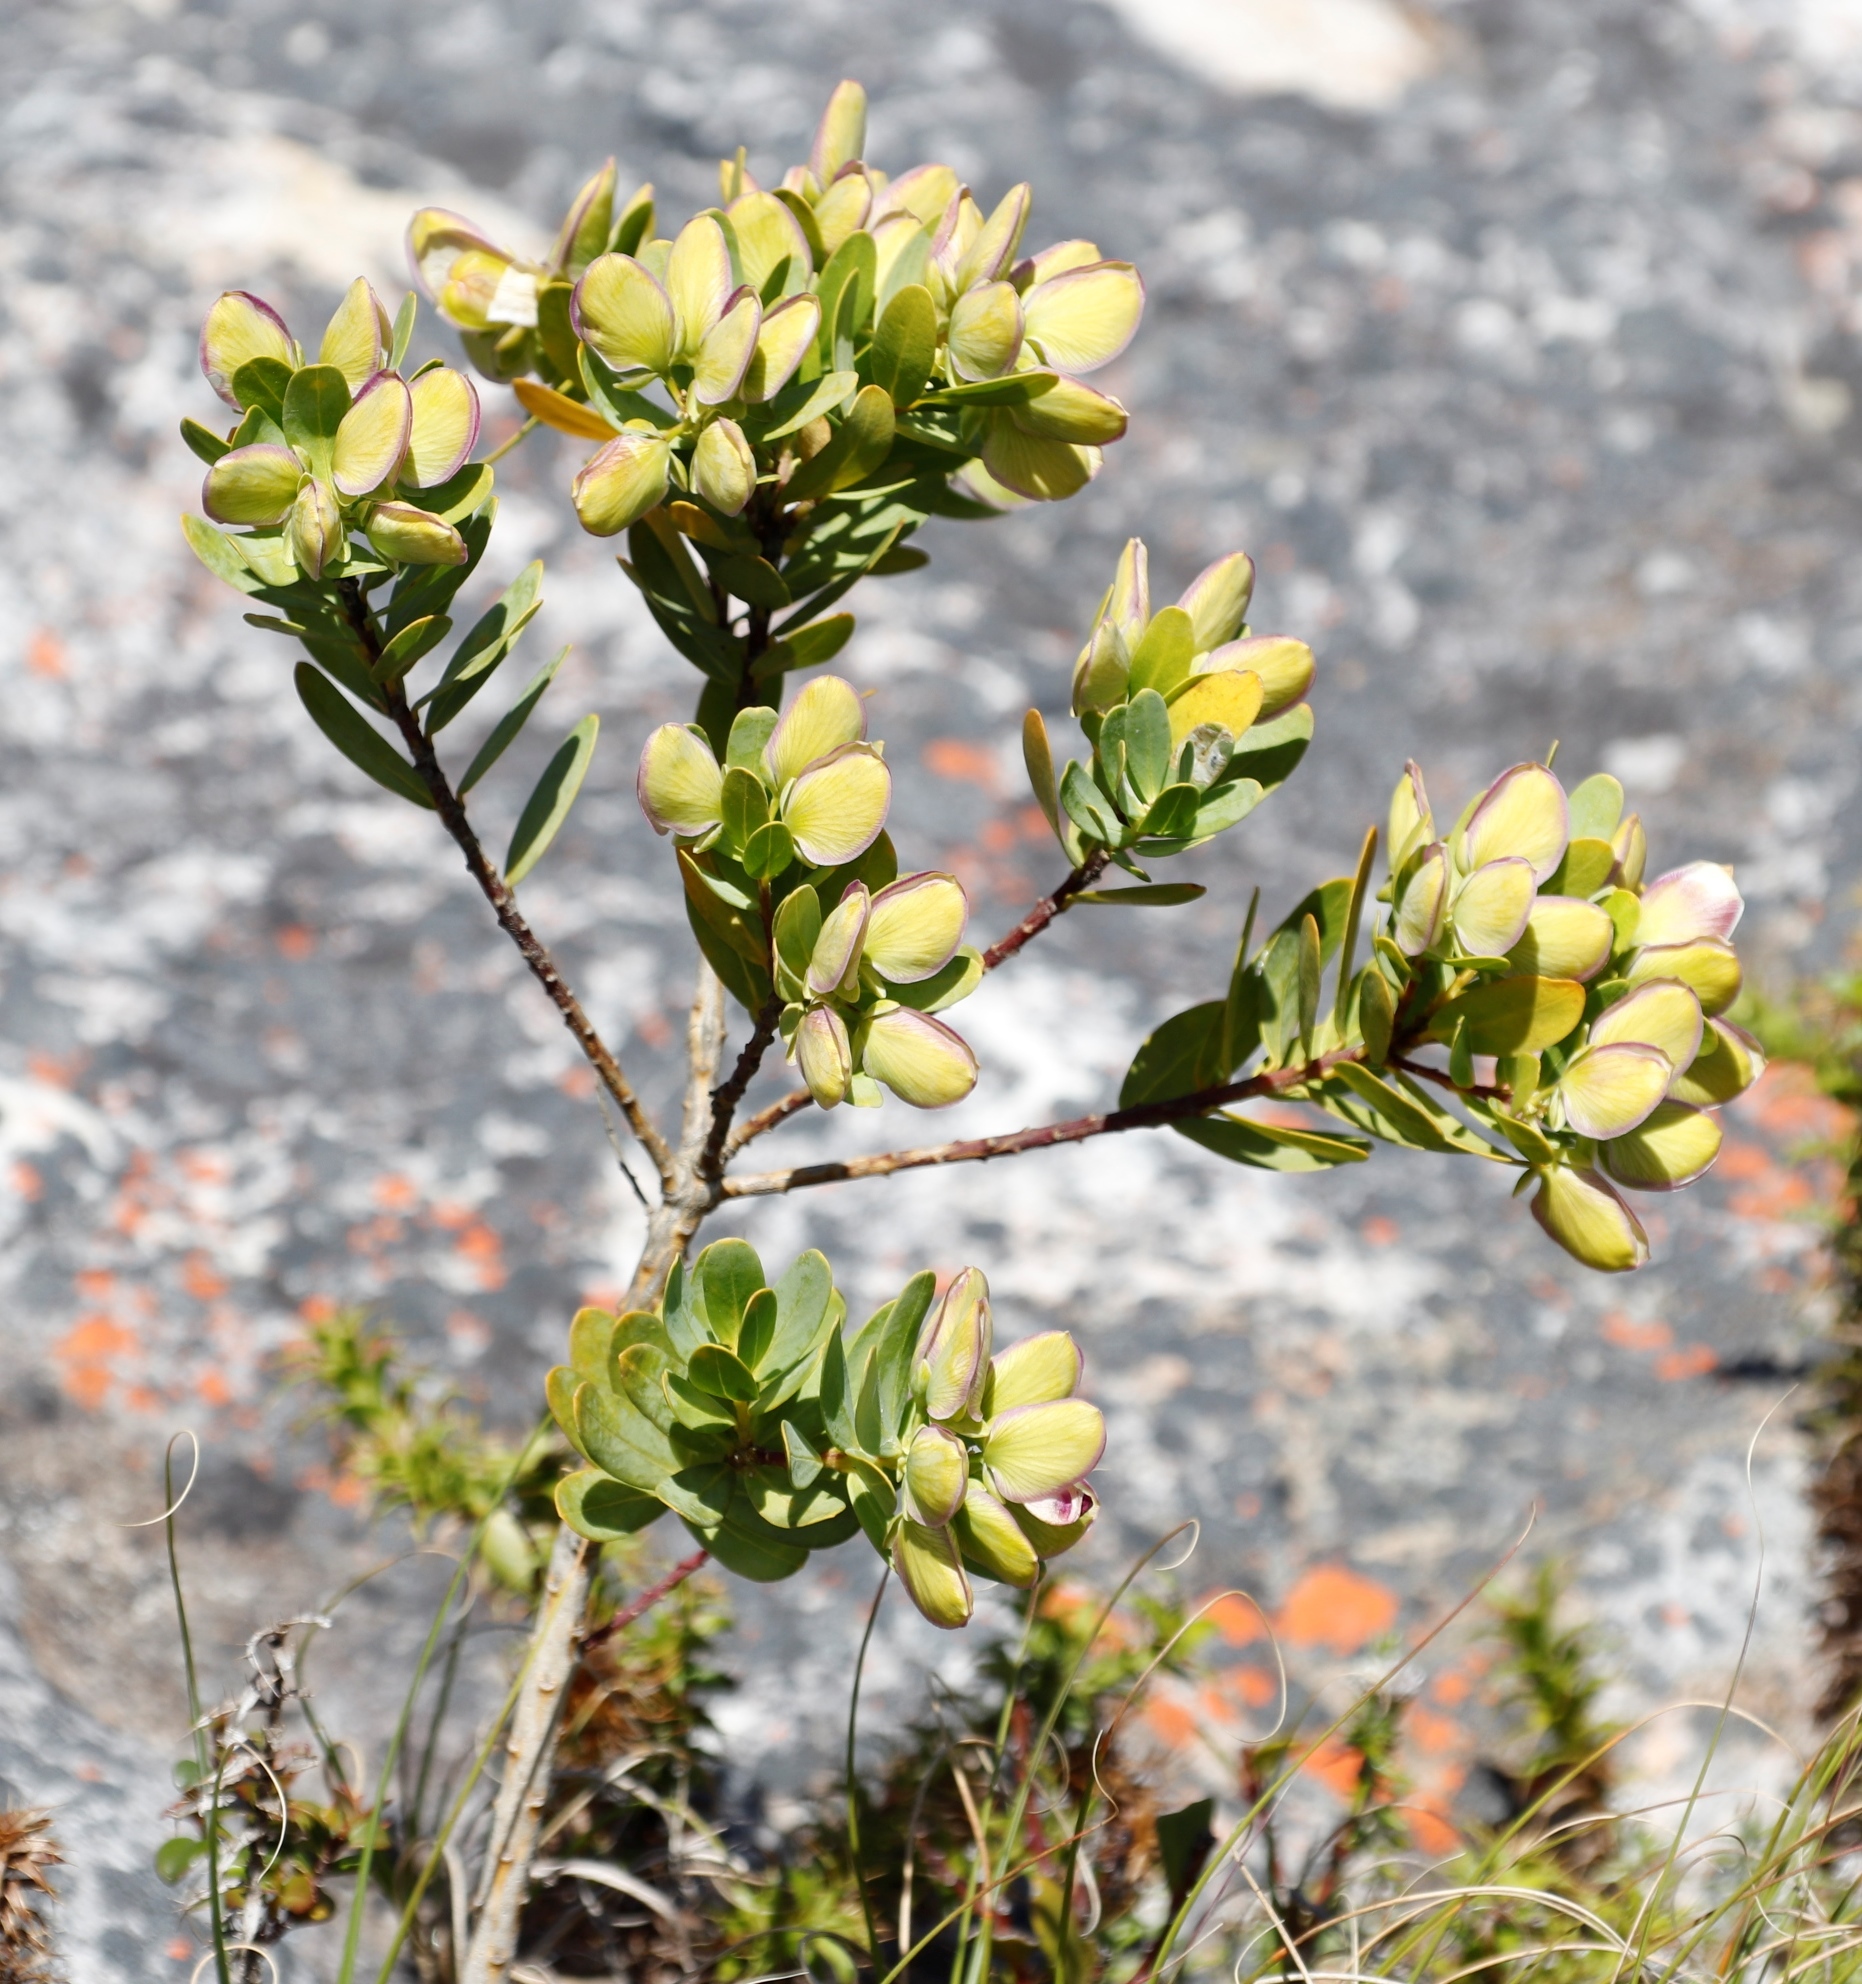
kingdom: Plantae
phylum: Tracheophyta
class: Magnoliopsida
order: Fabales
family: Polygalaceae
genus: Polygala
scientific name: Polygala myrtifolia
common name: Myrtle-leaf milkwort
